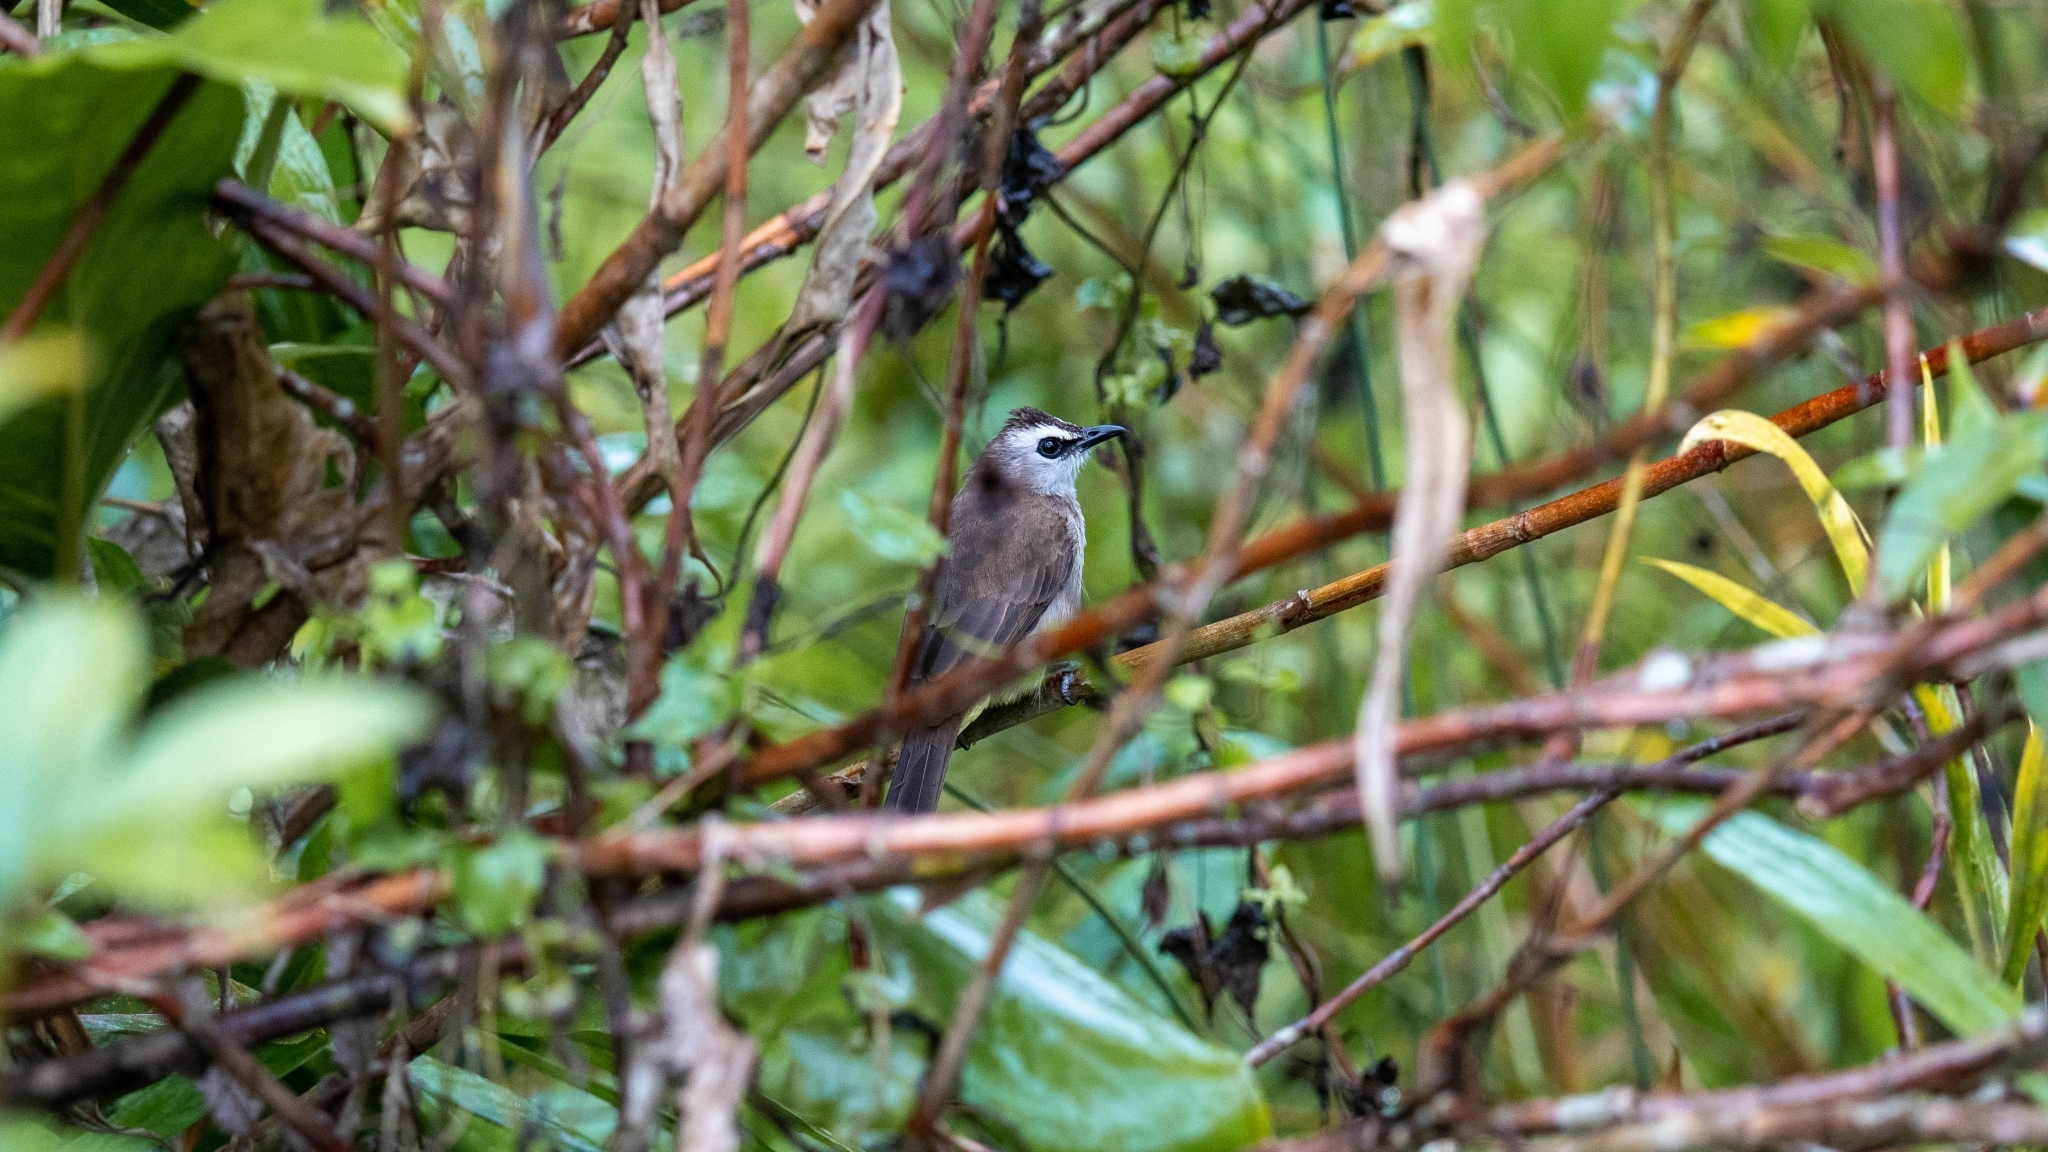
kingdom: Animalia
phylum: Chordata
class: Aves
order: Passeriformes
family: Pycnonotidae
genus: Pycnonotus
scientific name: Pycnonotus goiavier
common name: Yellow-vented bulbul
